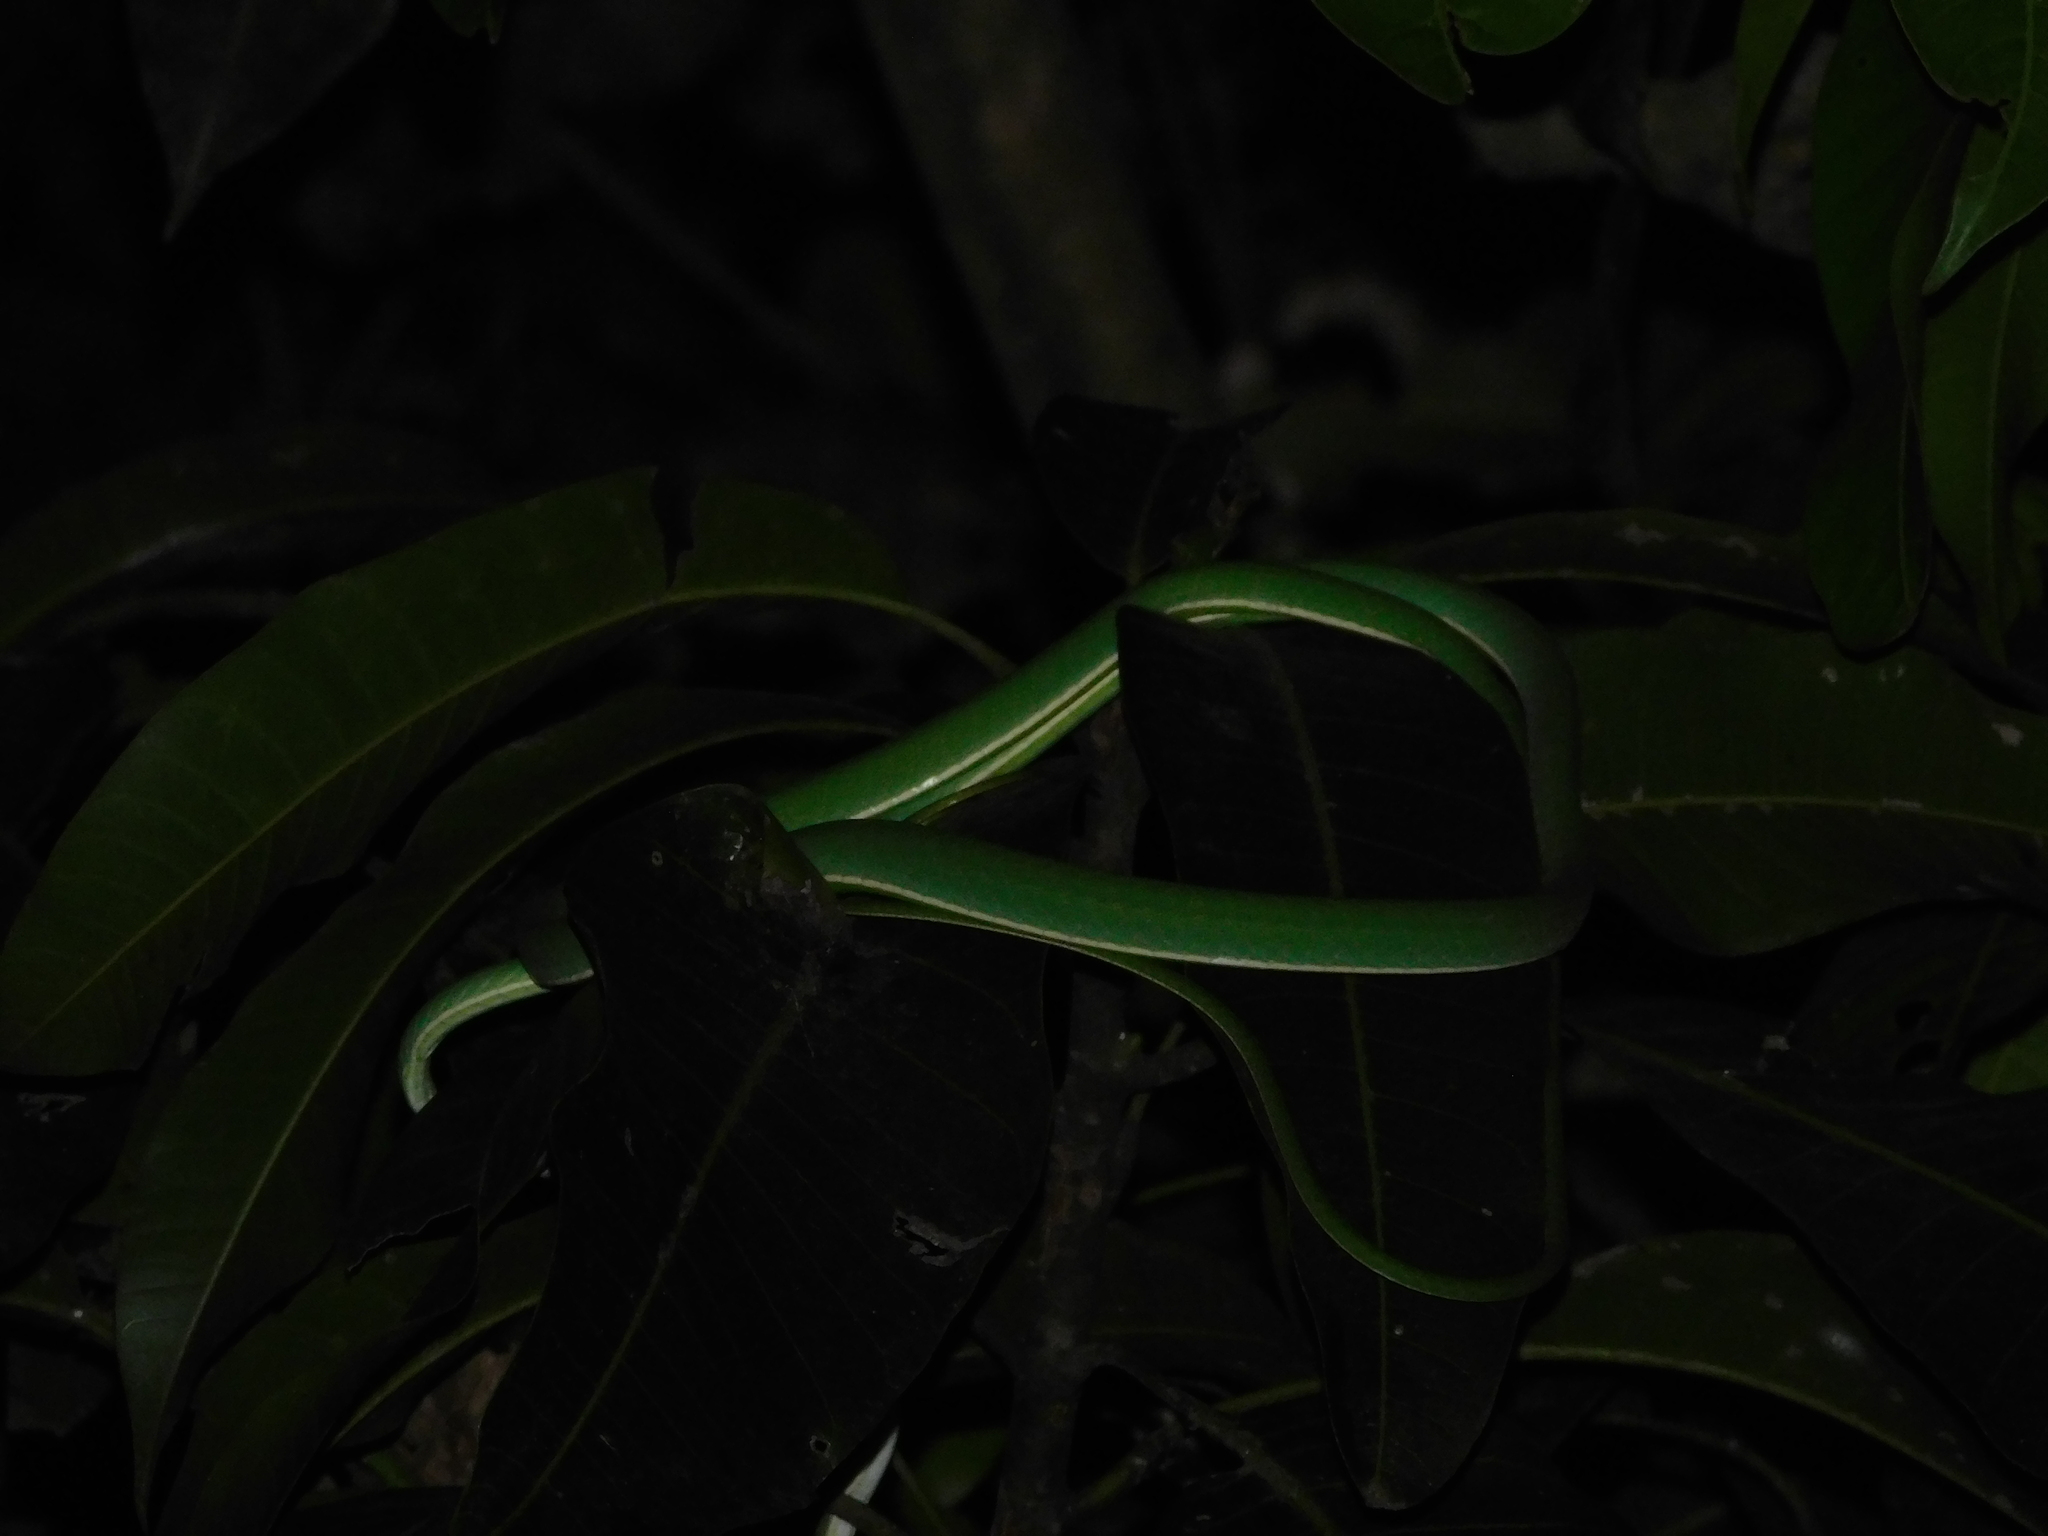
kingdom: Animalia
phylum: Chordata
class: Squamata
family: Colubridae
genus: Ahaetulla
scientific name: Ahaetulla prasina
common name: Oriental whip snake
